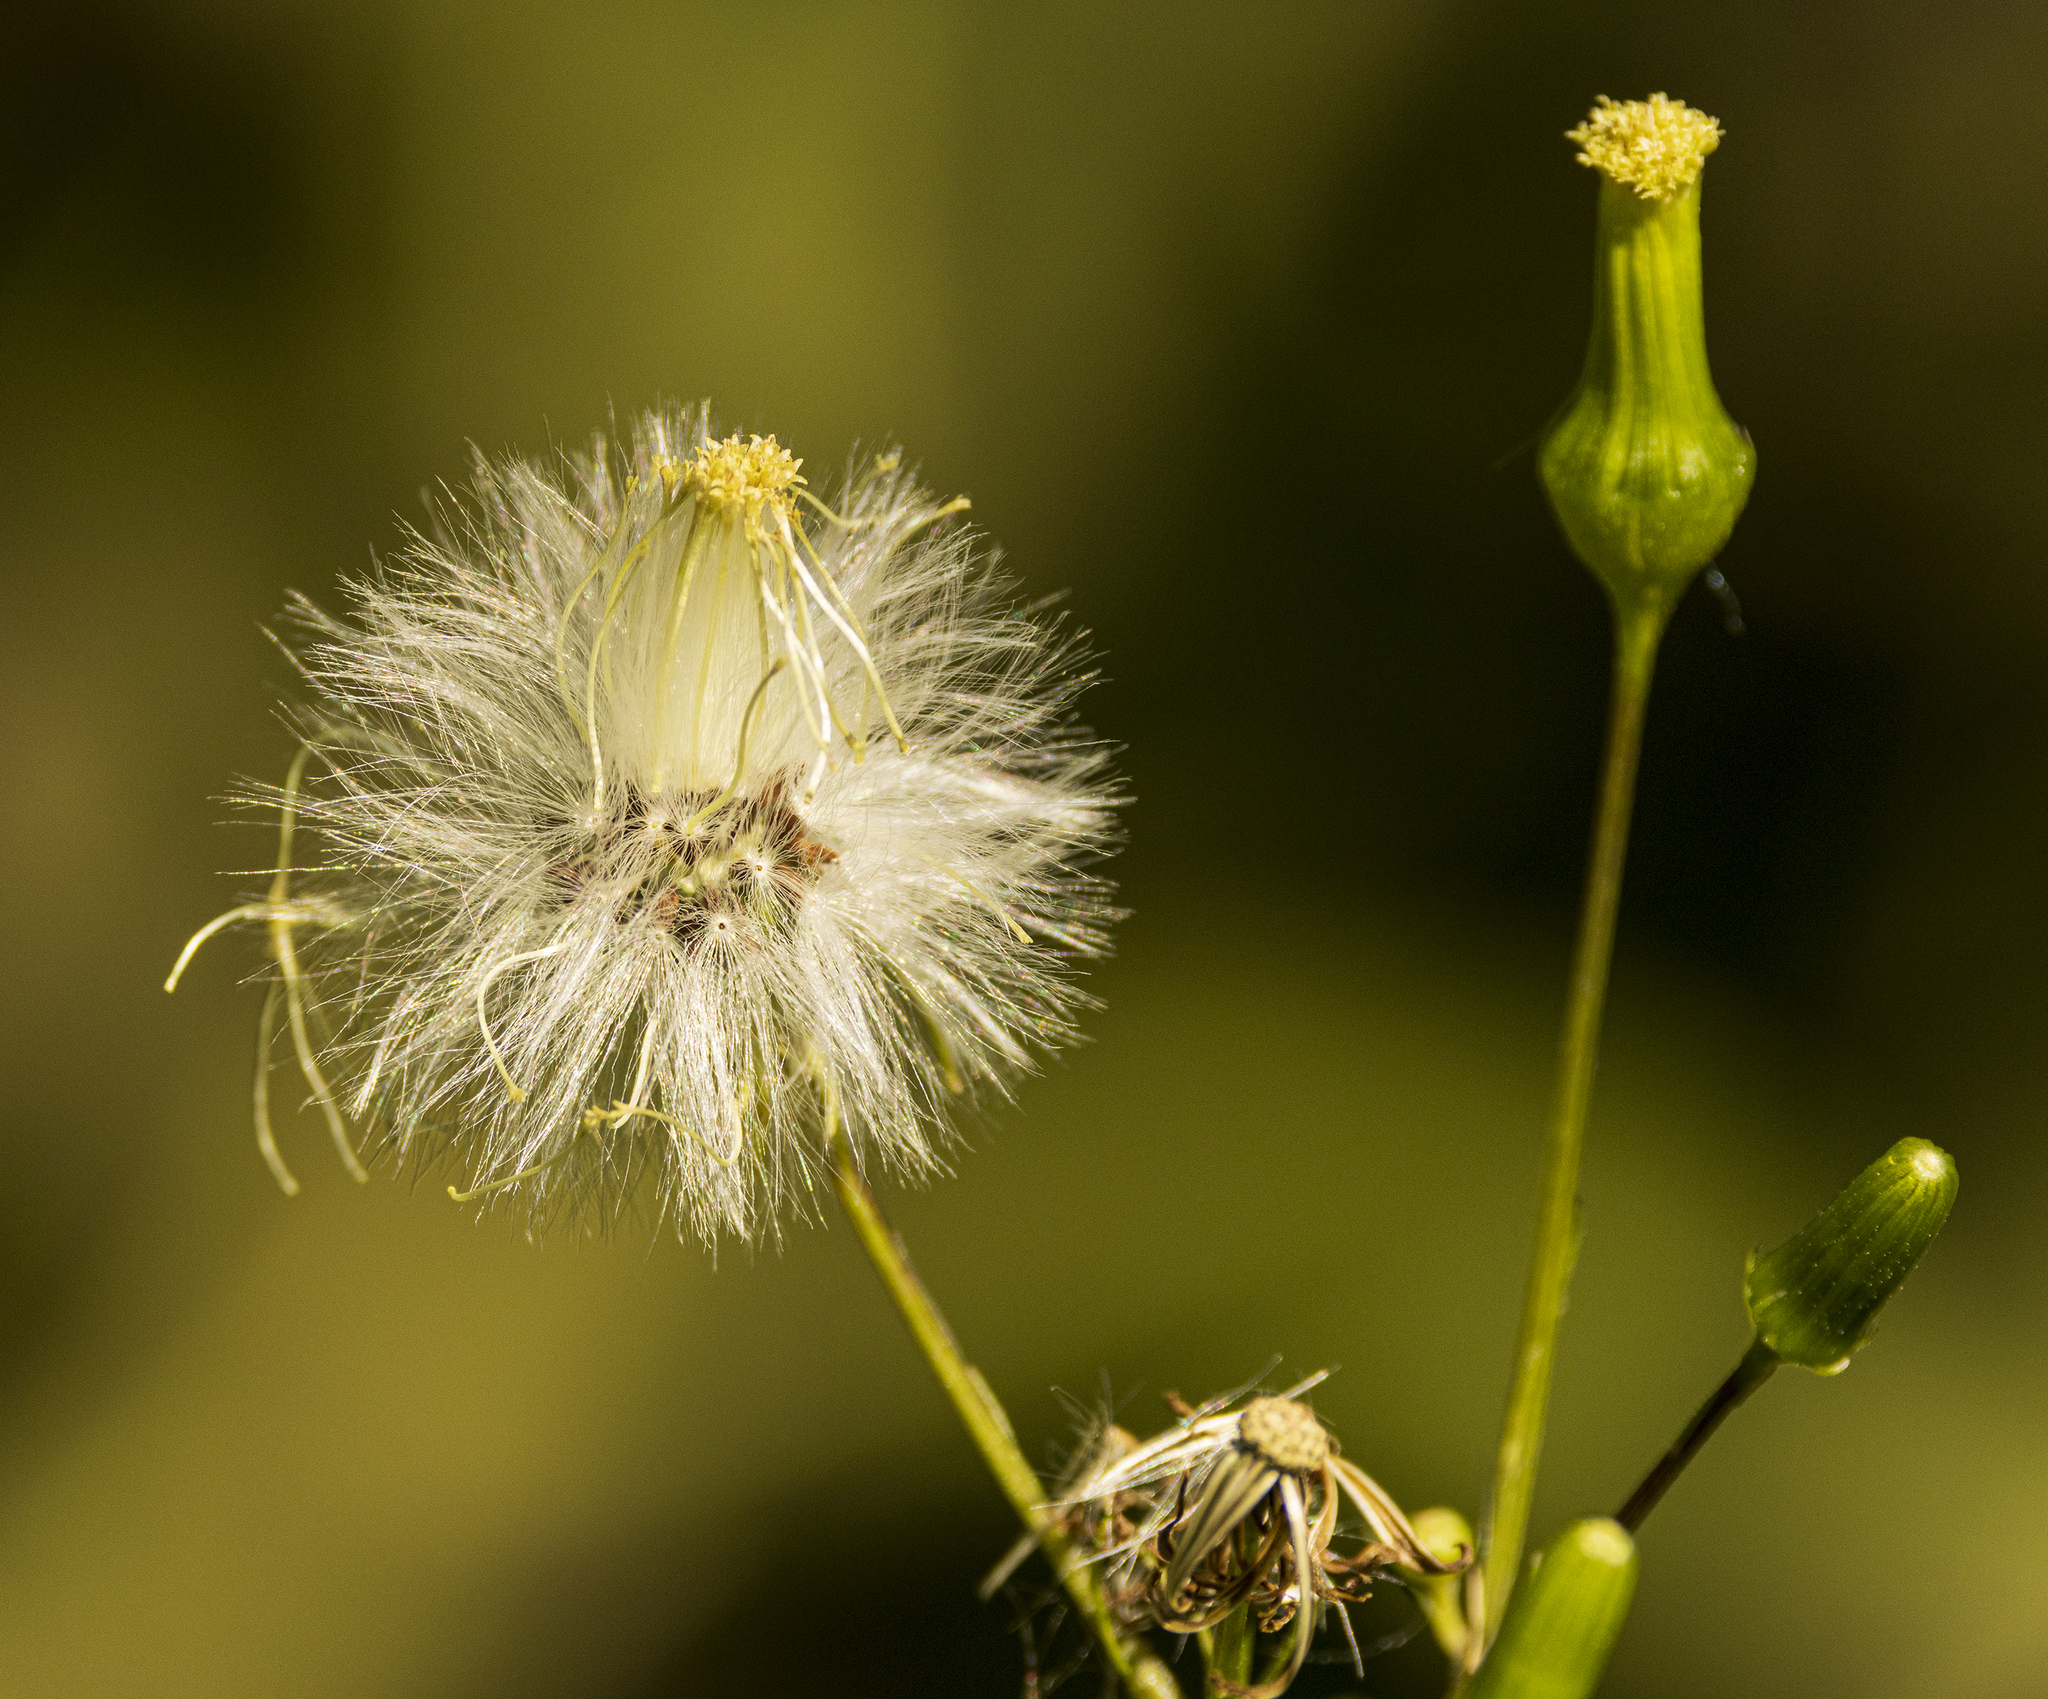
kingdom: Plantae
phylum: Tracheophyta
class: Magnoliopsida
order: Asterales
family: Asteraceae
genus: Erechtites
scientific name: Erechtites hieraciifolius
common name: American burnweed
